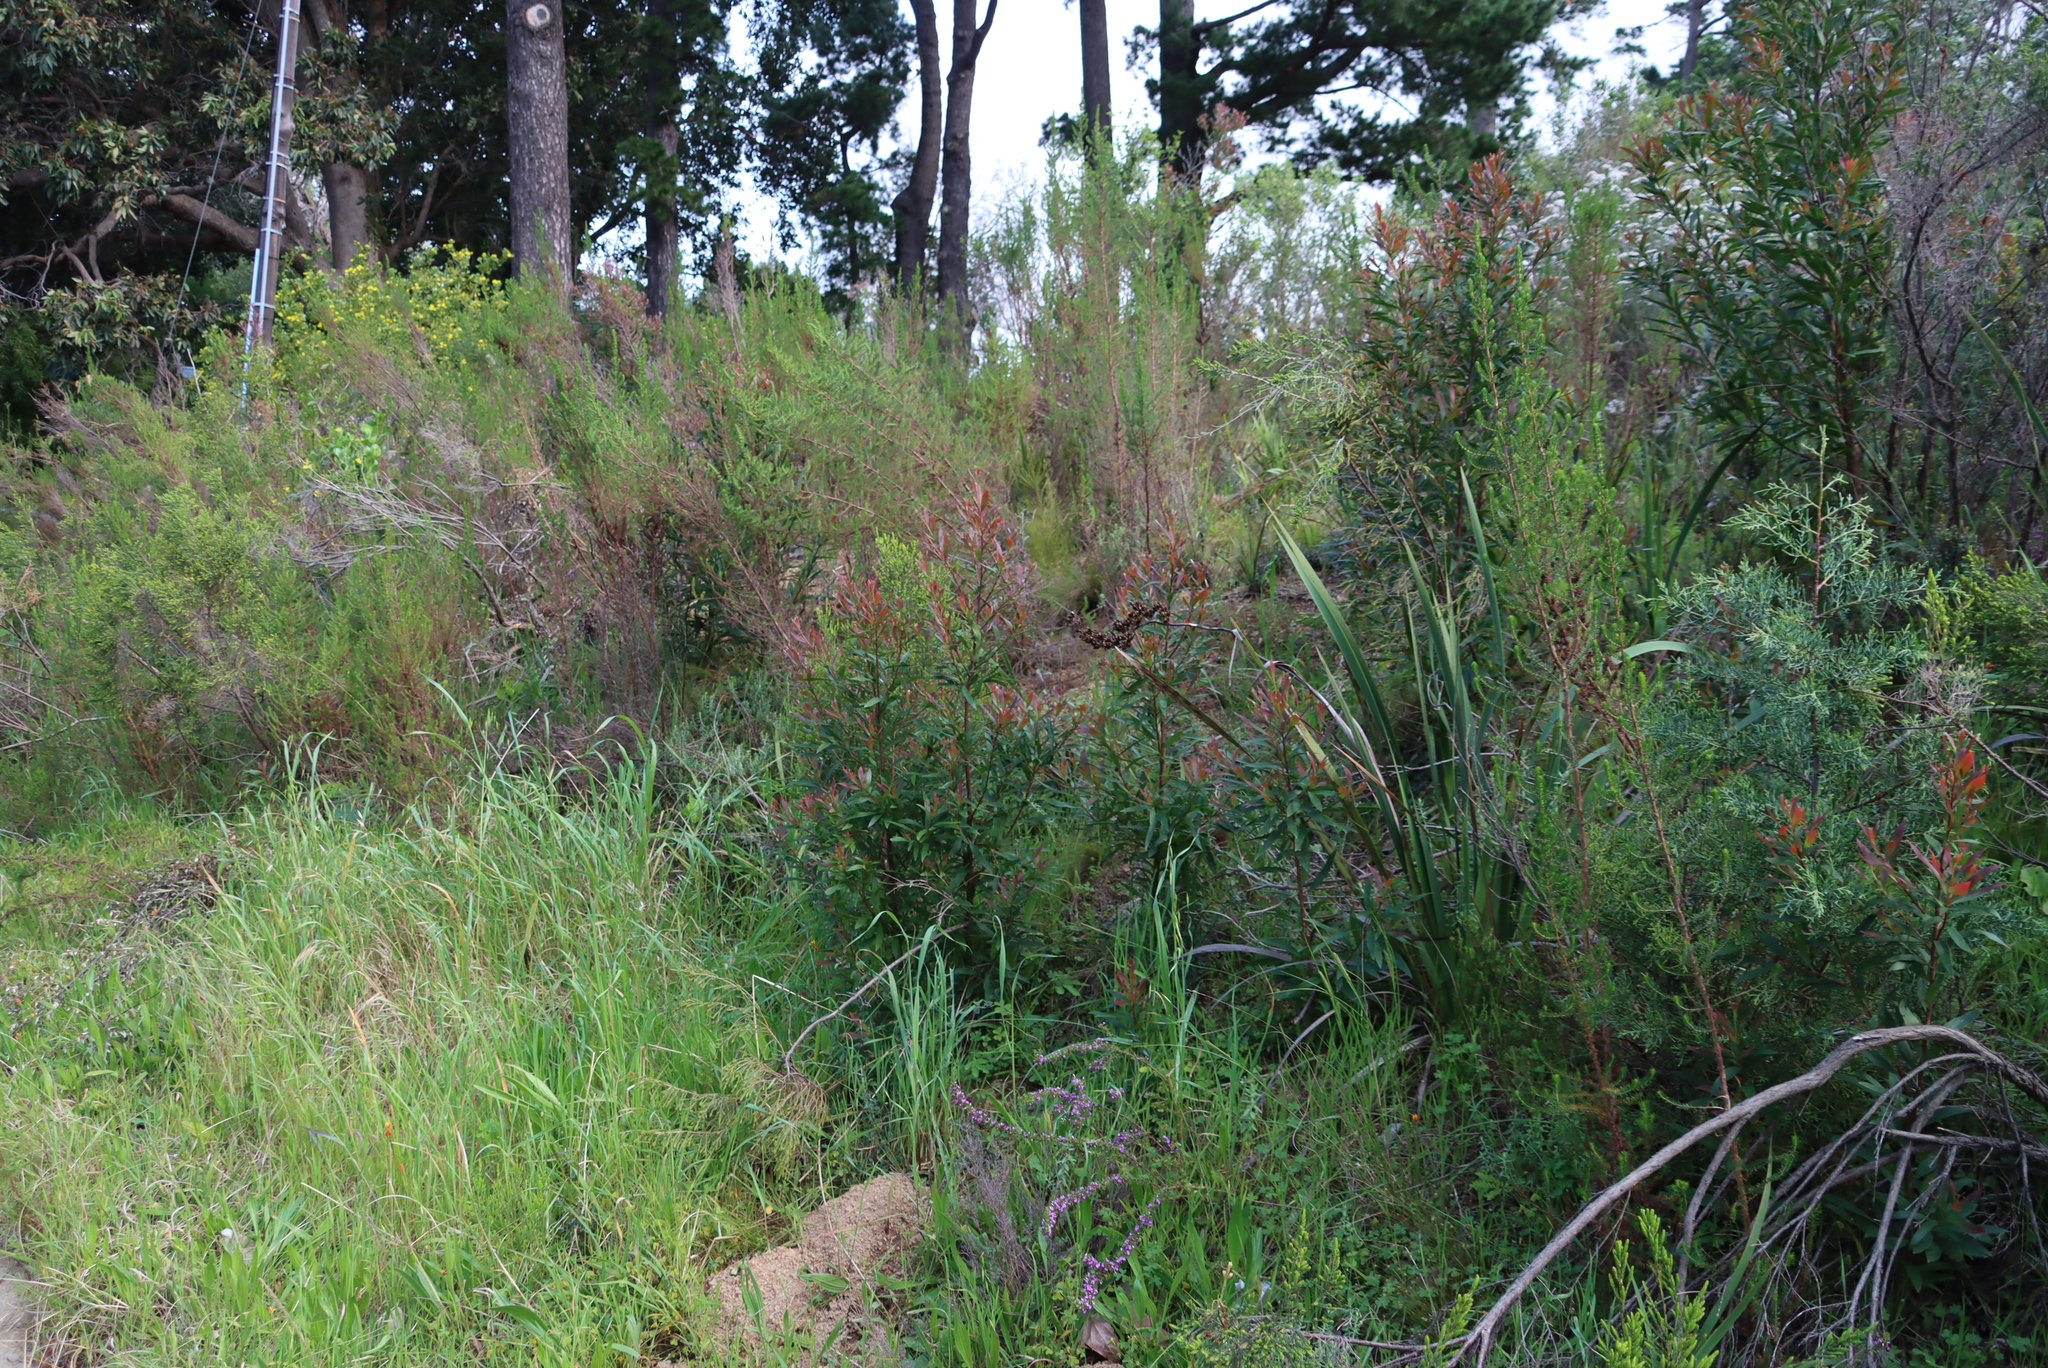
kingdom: Plantae
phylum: Tracheophyta
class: Magnoliopsida
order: Proteales
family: Proteaceae
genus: Hakea
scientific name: Hakea salicifolia
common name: Willow hakea
